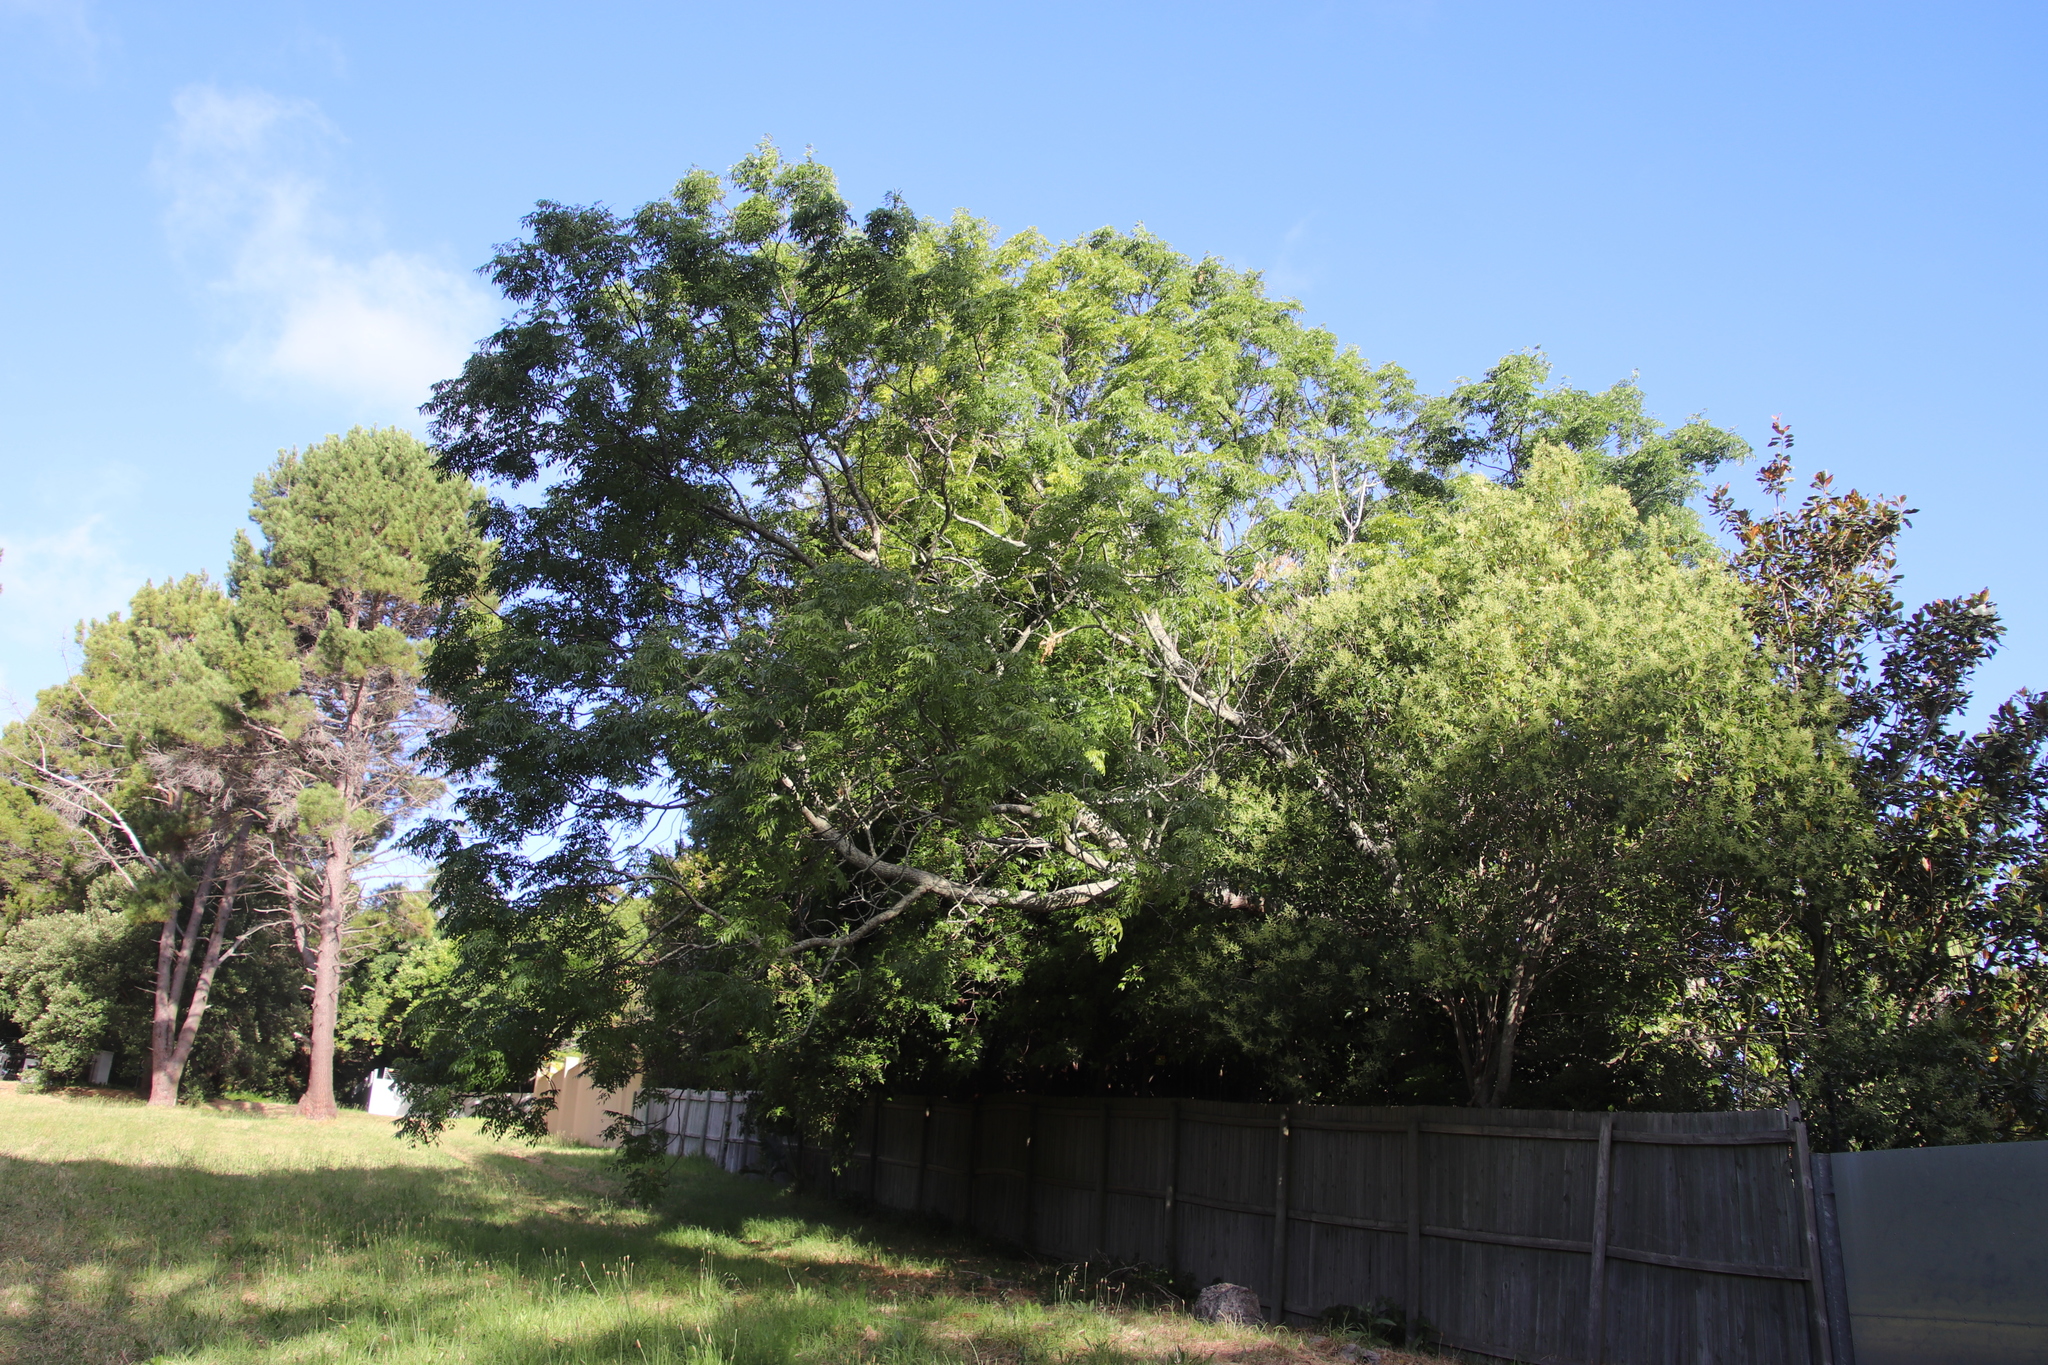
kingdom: Plantae
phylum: Tracheophyta
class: Magnoliopsida
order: Sapindales
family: Meliaceae
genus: Melia
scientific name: Melia azedarach
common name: Chinaberrytree
